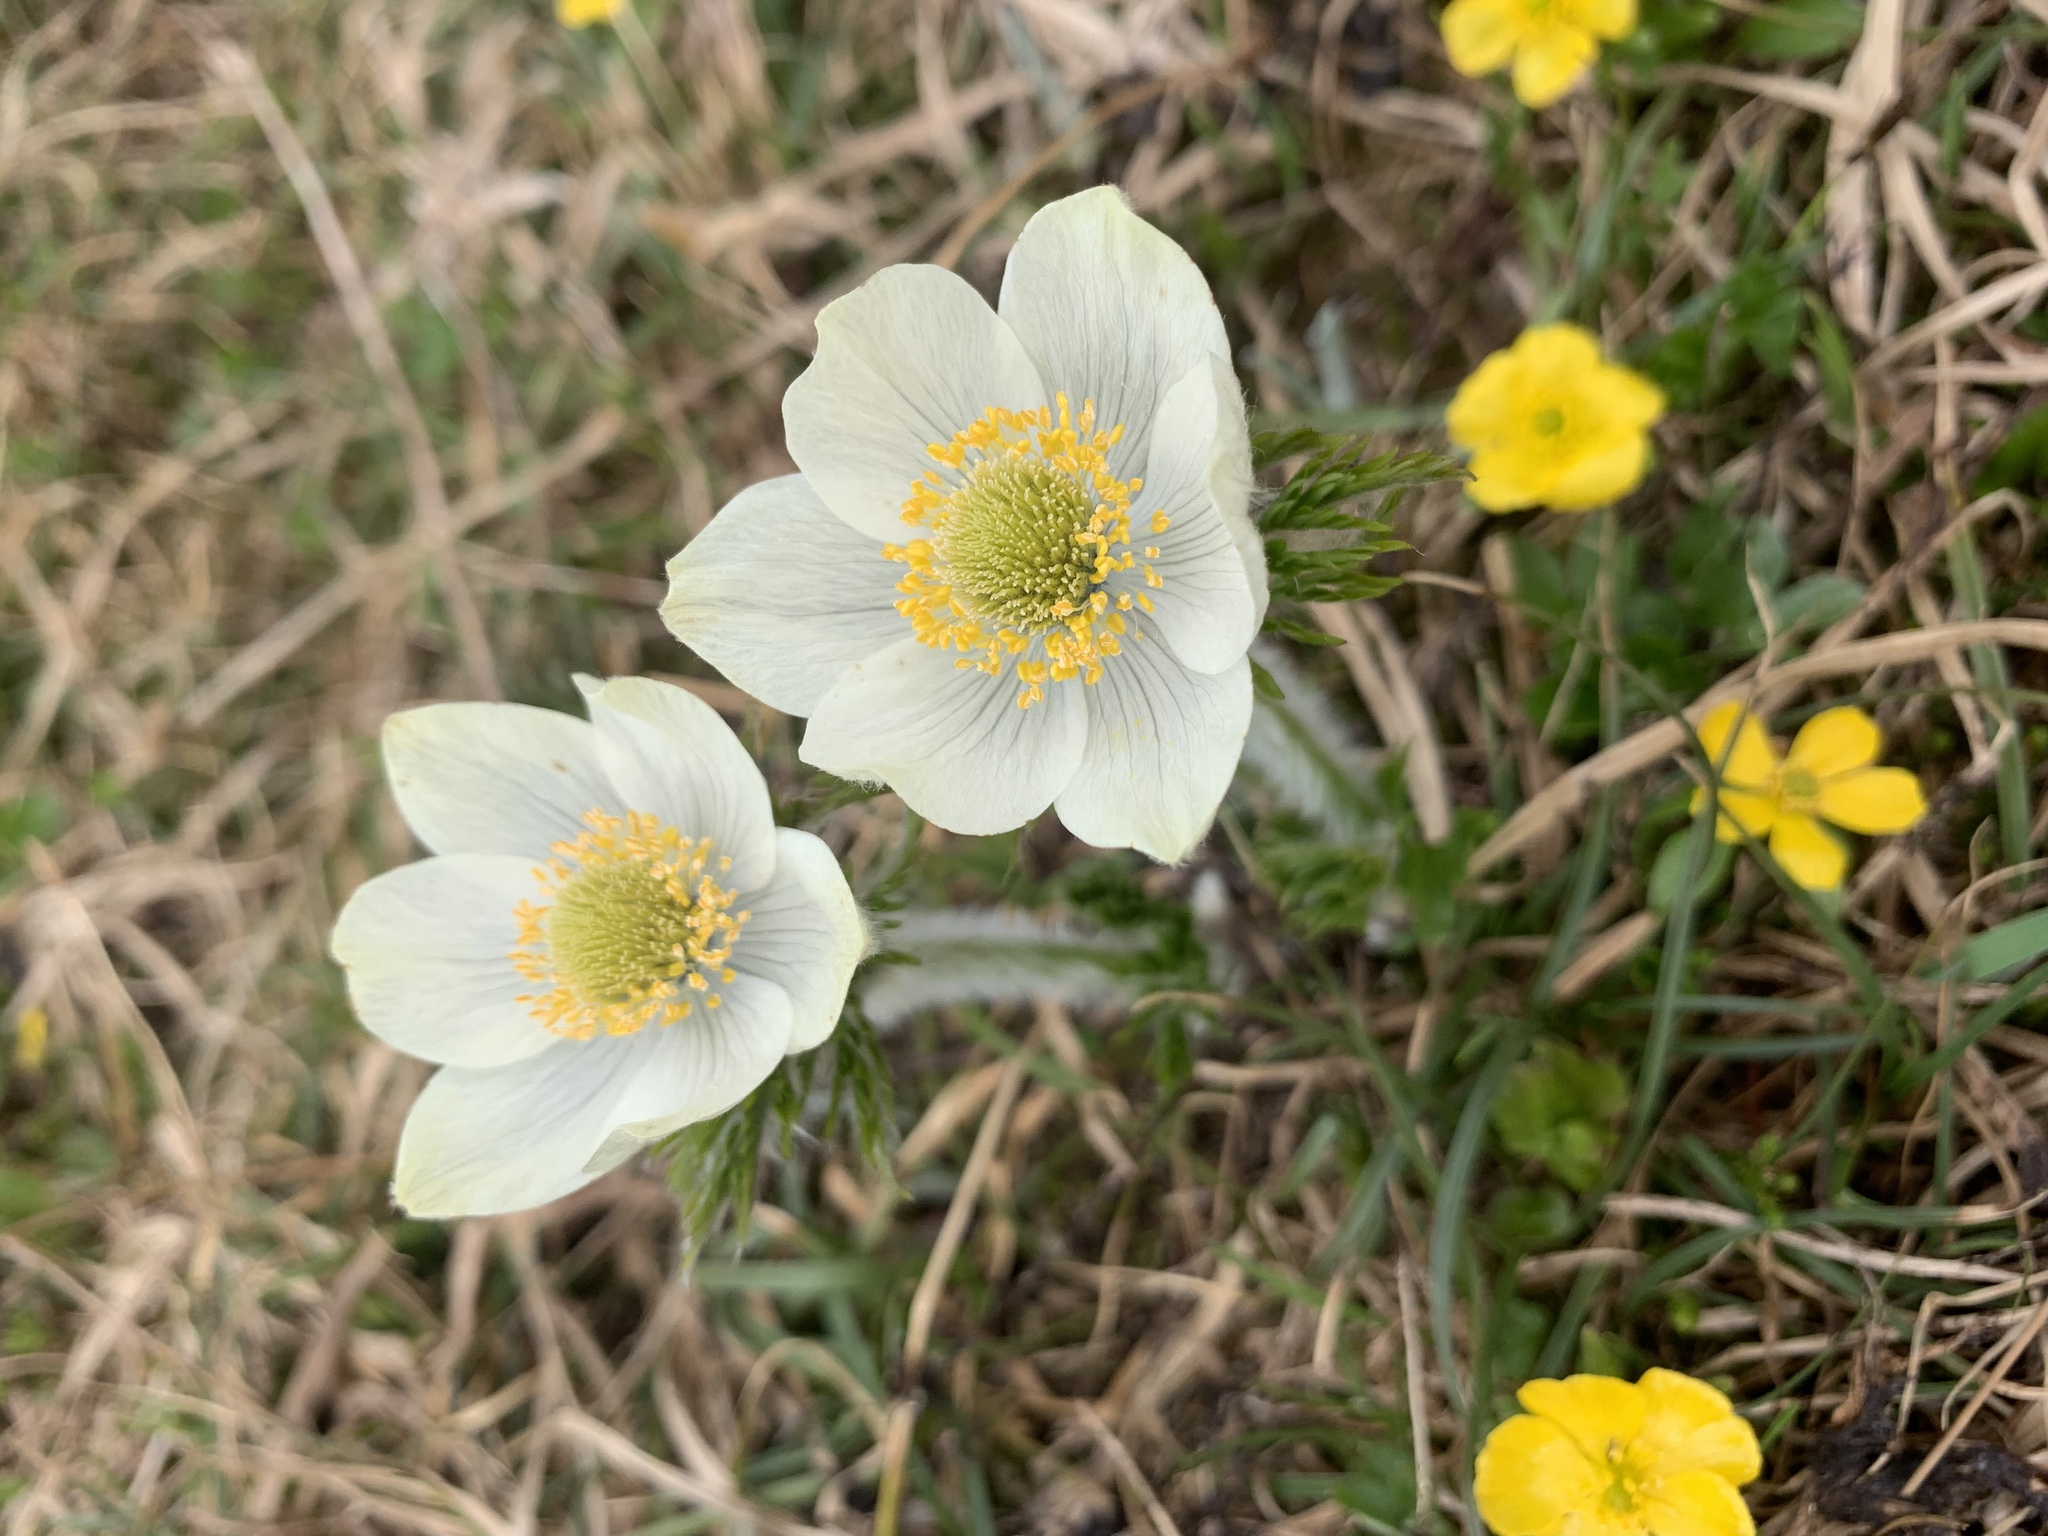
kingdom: Plantae
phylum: Tracheophyta
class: Magnoliopsida
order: Ranunculales
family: Ranunculaceae
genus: Pulsatilla
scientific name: Pulsatilla occidentalis
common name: Mountain pasqueflower
